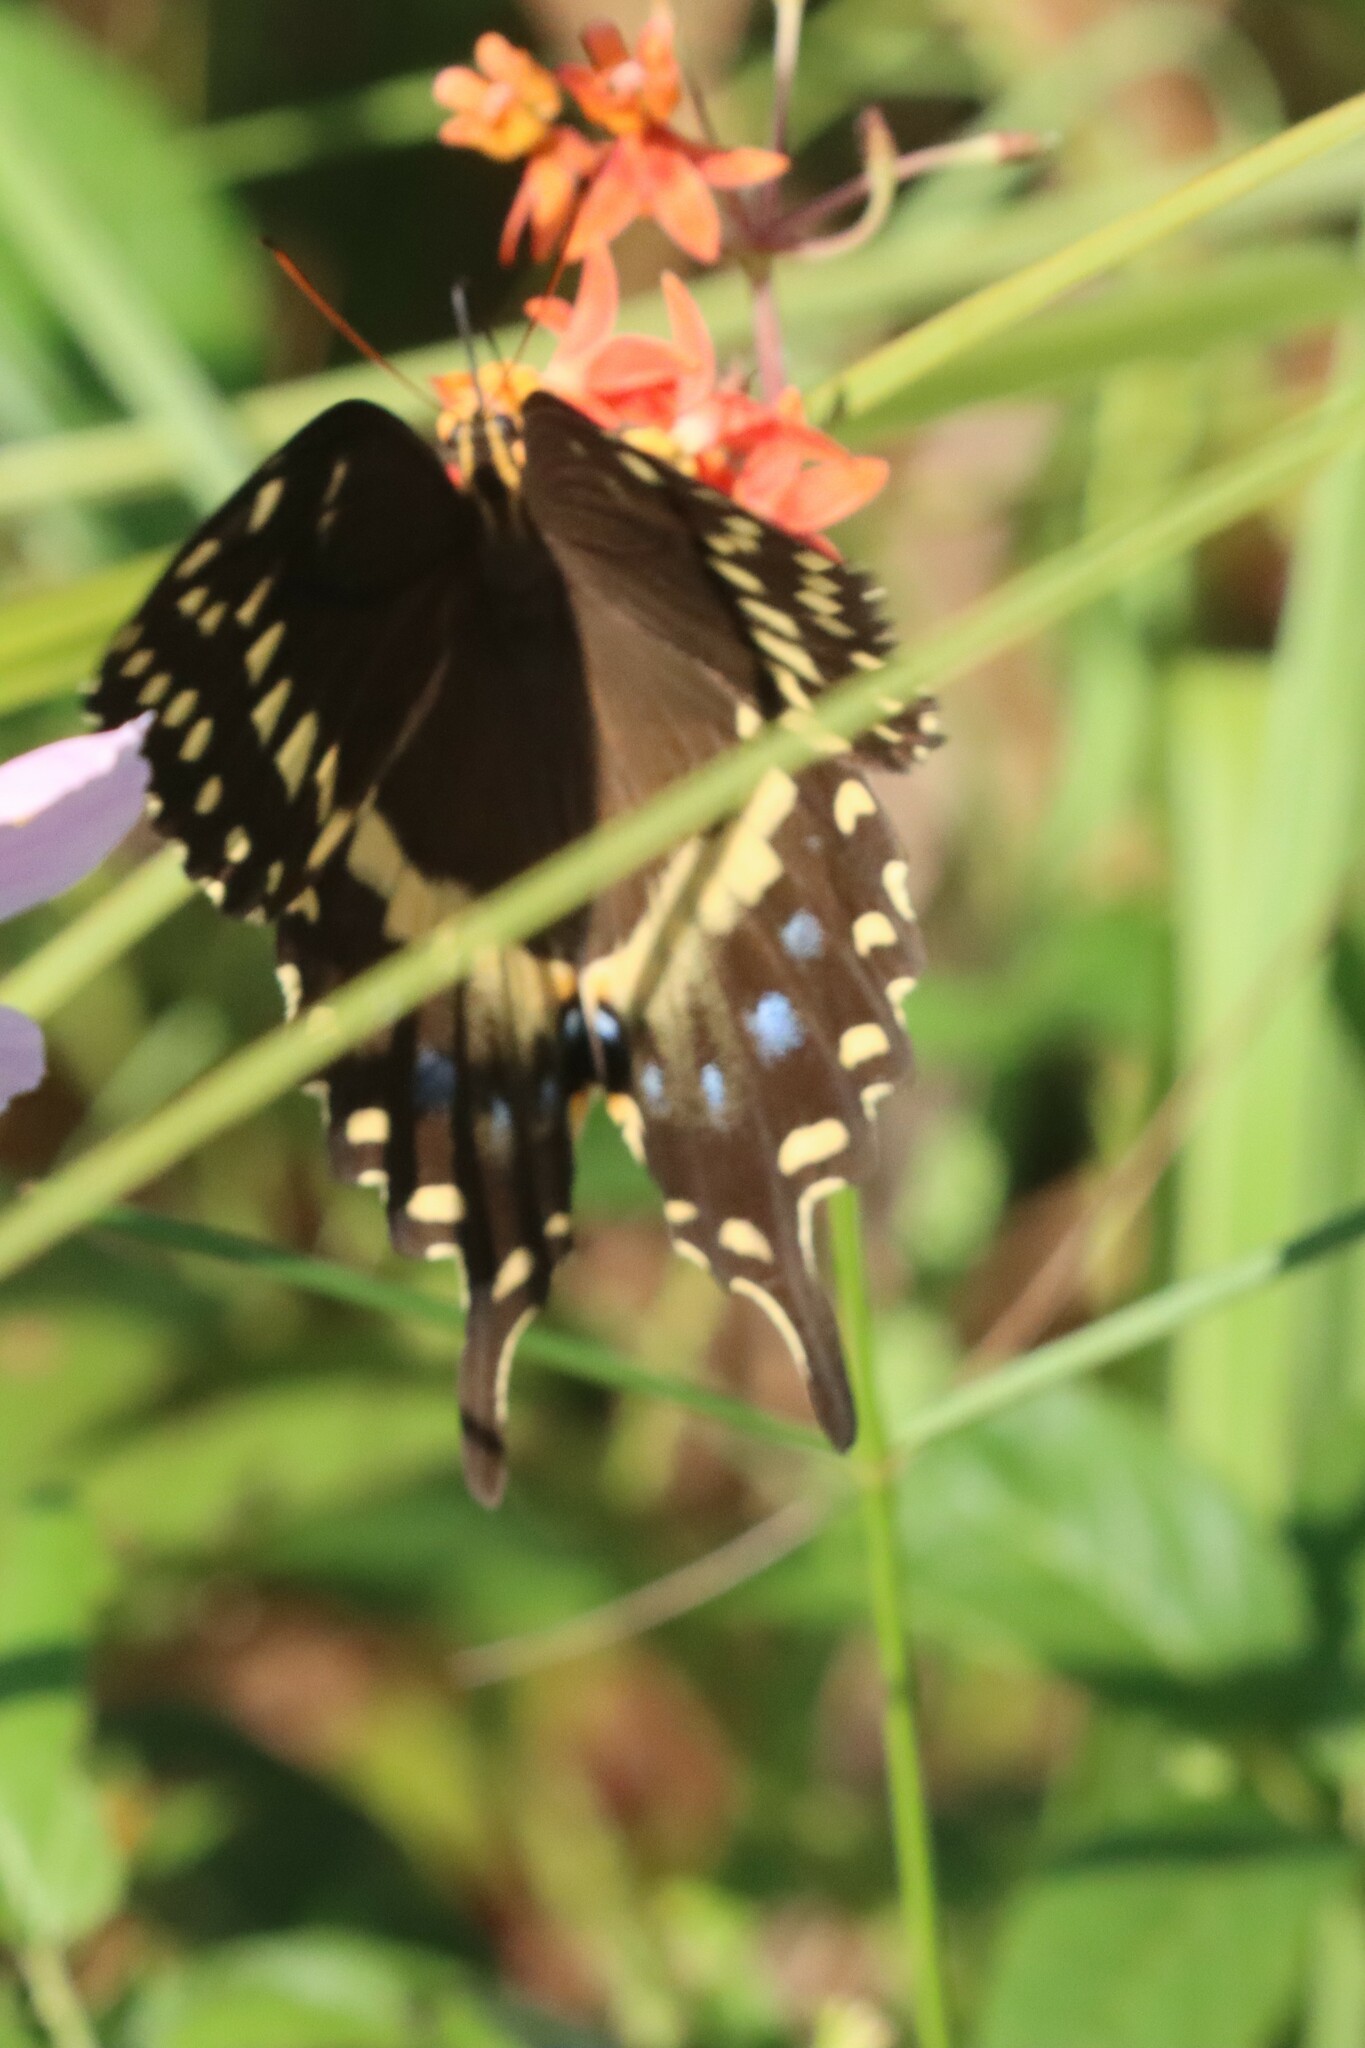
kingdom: Animalia
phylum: Arthropoda
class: Insecta
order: Lepidoptera
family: Papilionidae
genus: Papilio
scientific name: Papilio palamedes
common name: Palamedes swallowtail
